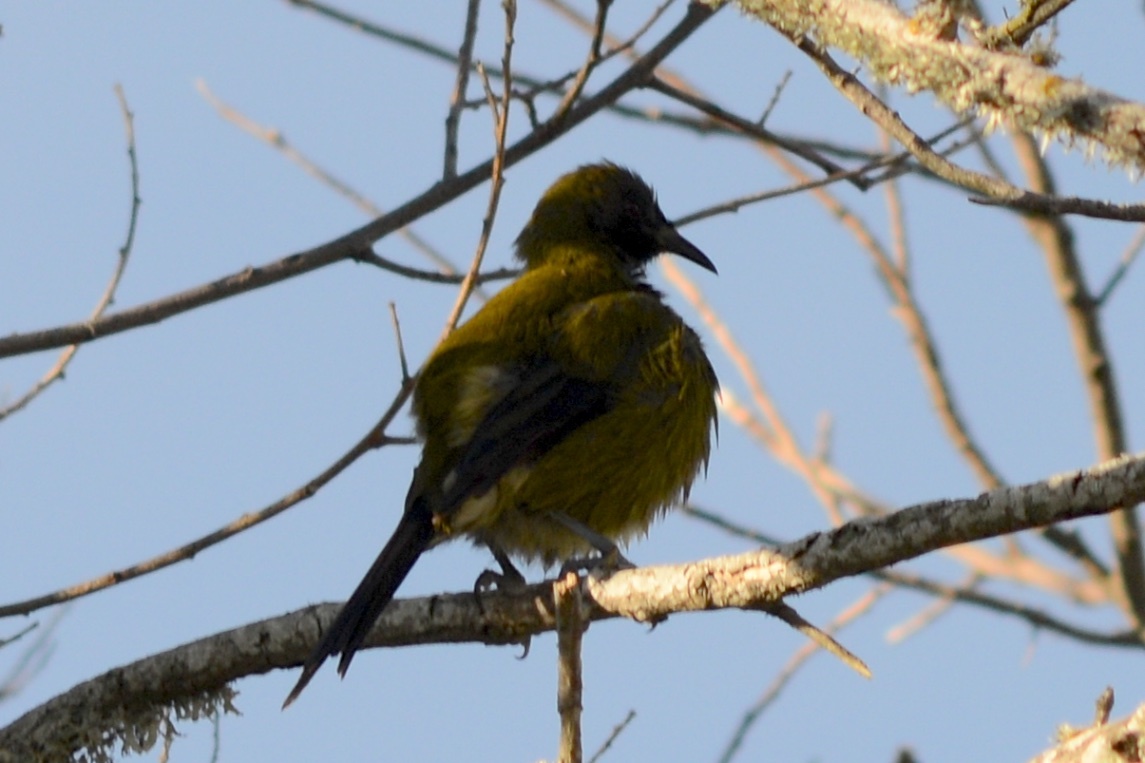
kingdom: Animalia
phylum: Chordata
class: Aves
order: Passeriformes
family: Meliphagidae
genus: Anthornis
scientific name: Anthornis melanura
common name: New zealand bellbird
